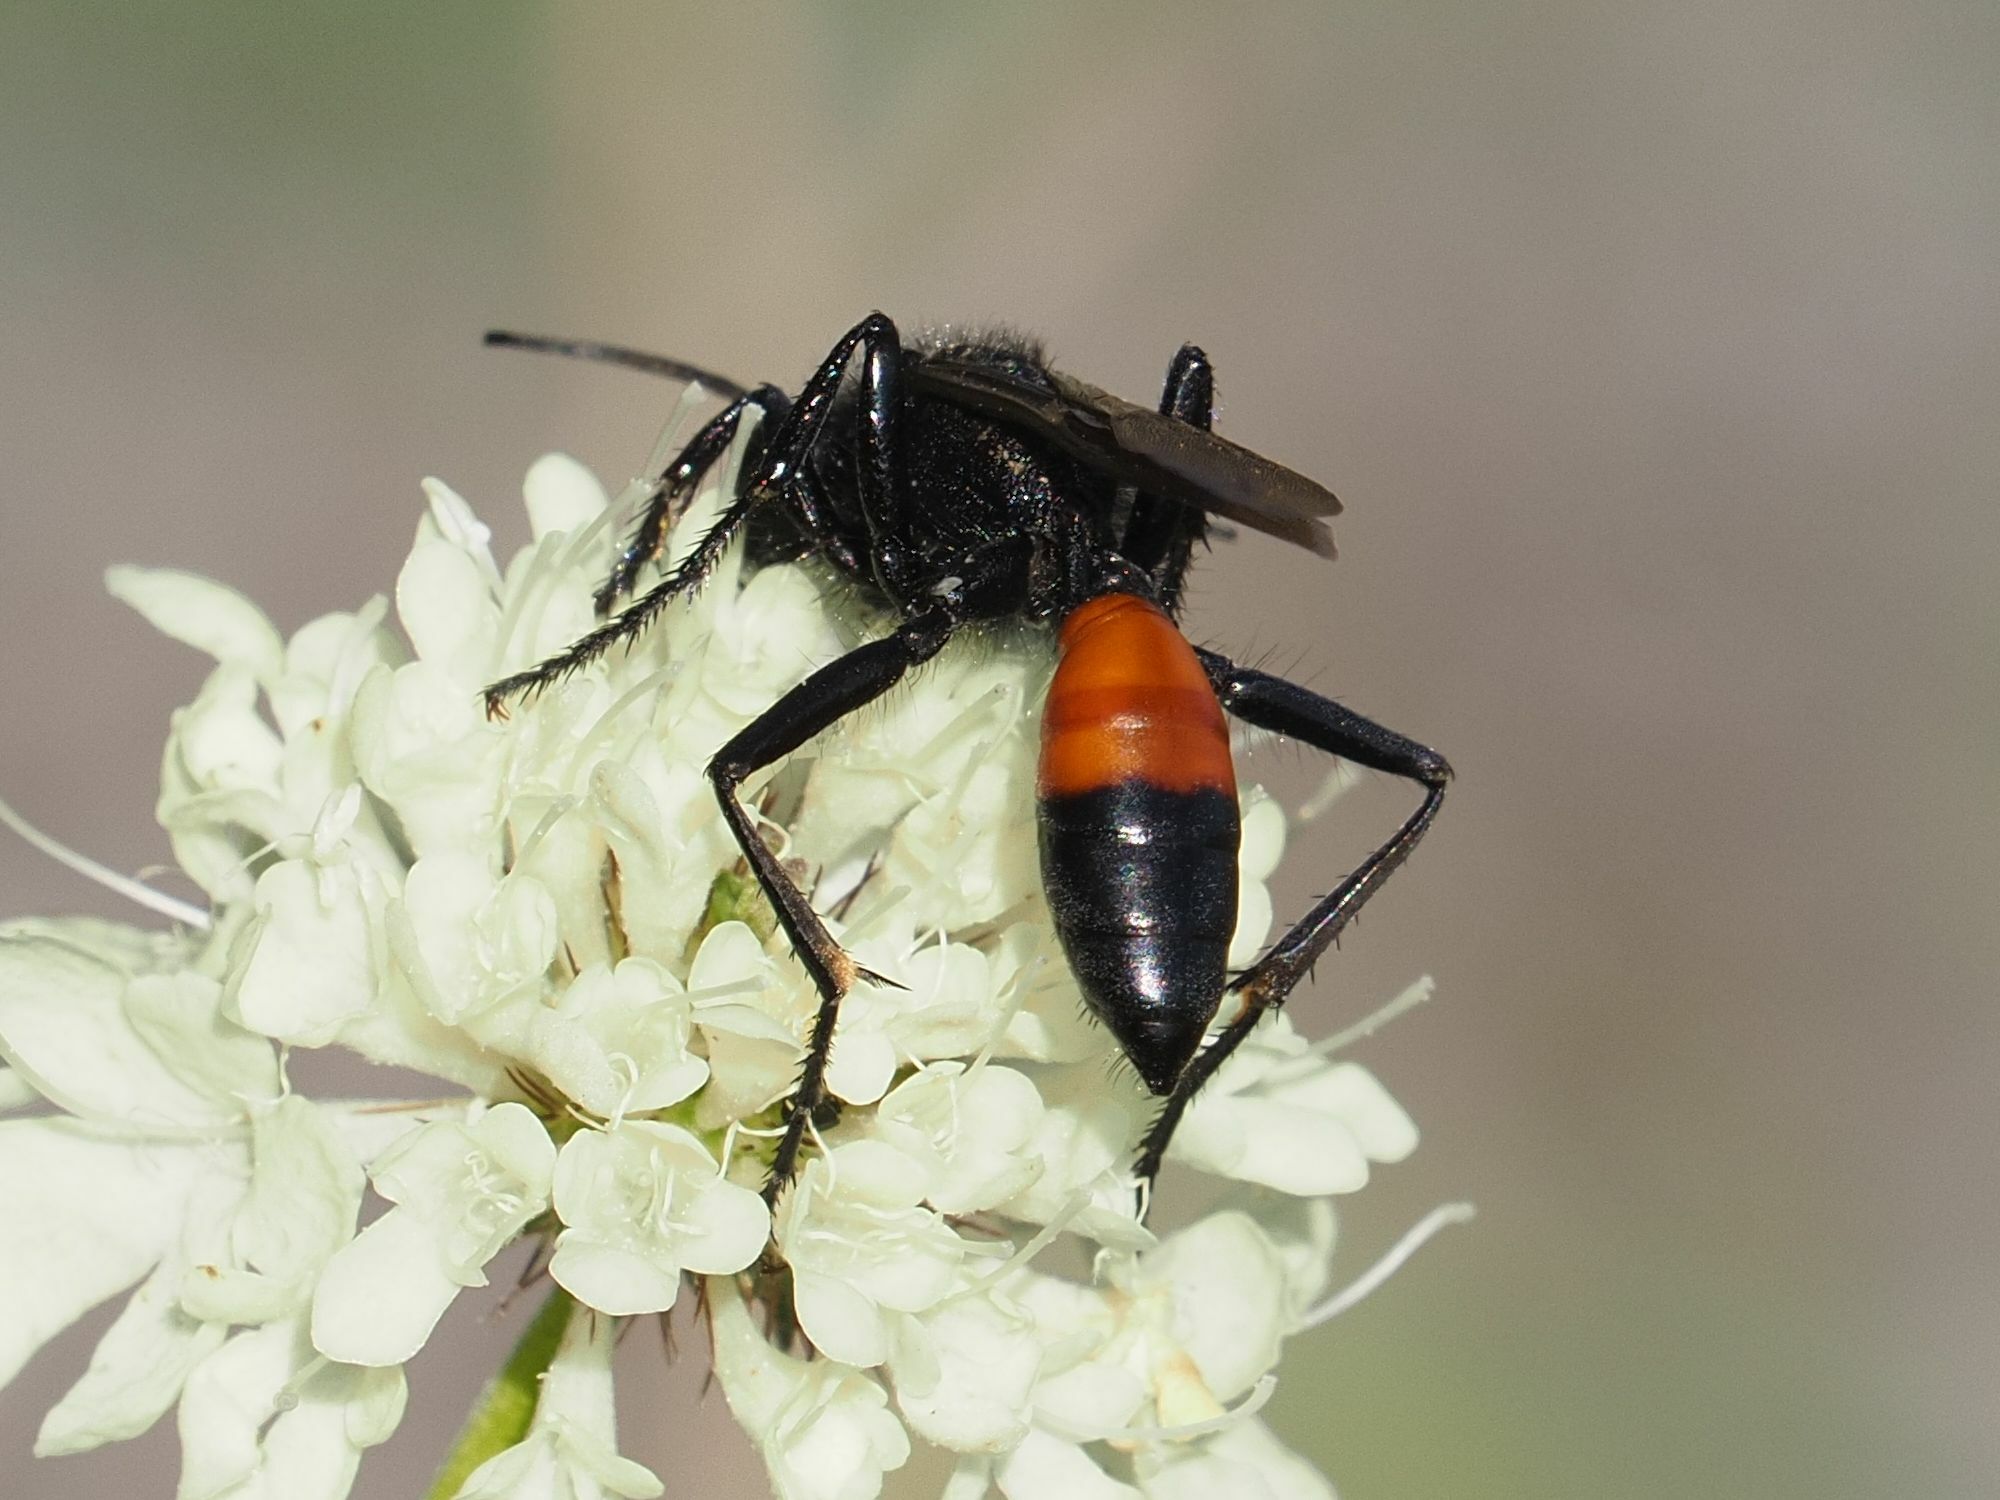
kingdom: Animalia
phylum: Arthropoda
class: Insecta
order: Hymenoptera
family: Sphecidae
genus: Podalonia
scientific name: Podalonia hirsuta
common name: Hairy sand wasp
